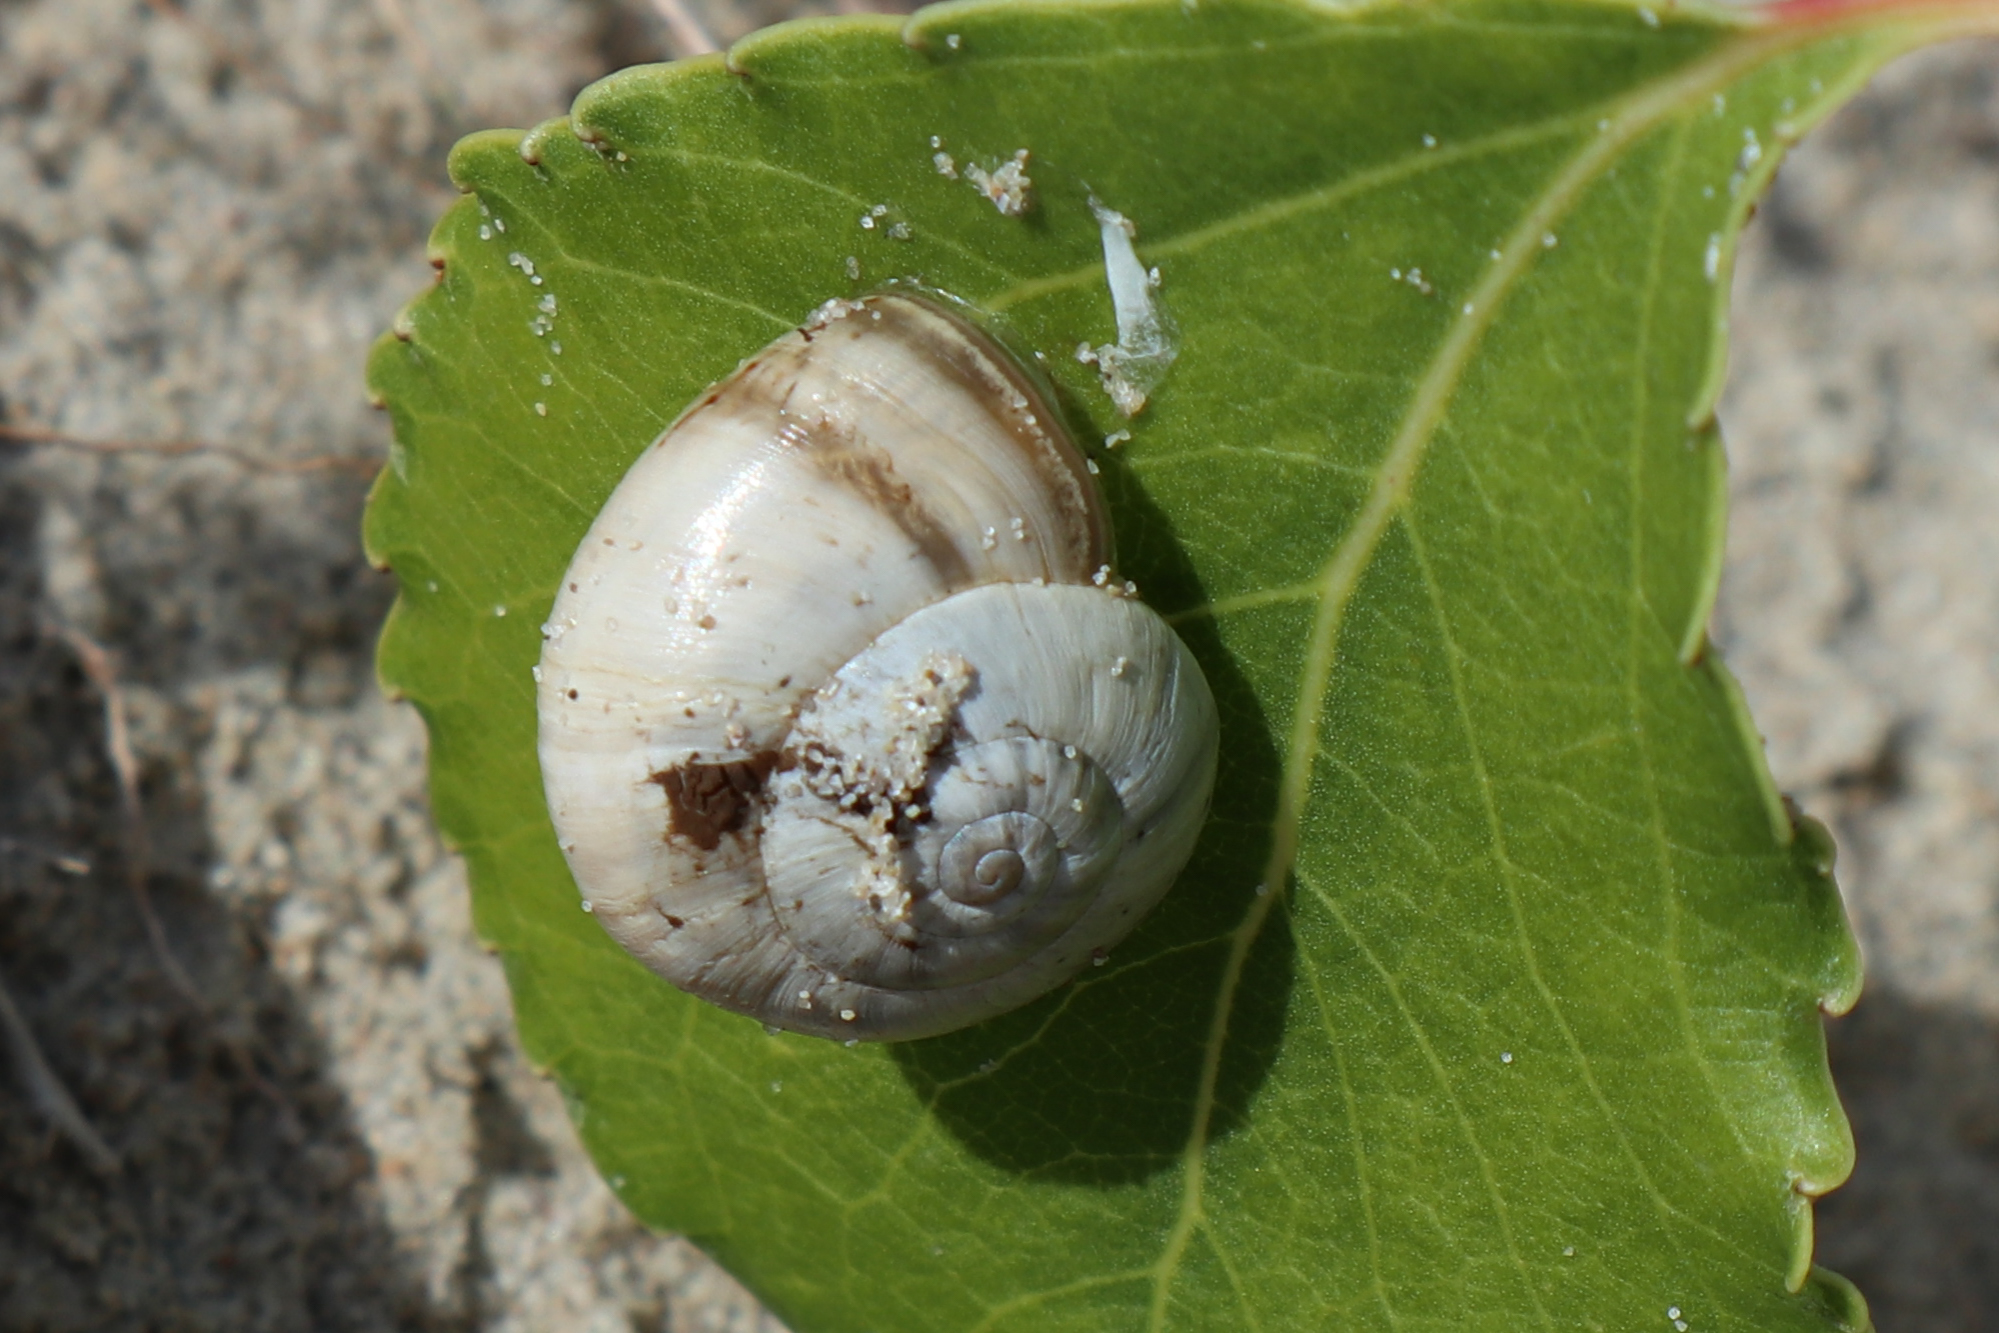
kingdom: Animalia
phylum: Mollusca
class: Gastropoda
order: Stylommatophora
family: Helicidae
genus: Theba
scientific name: Theba pisana
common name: White snail
